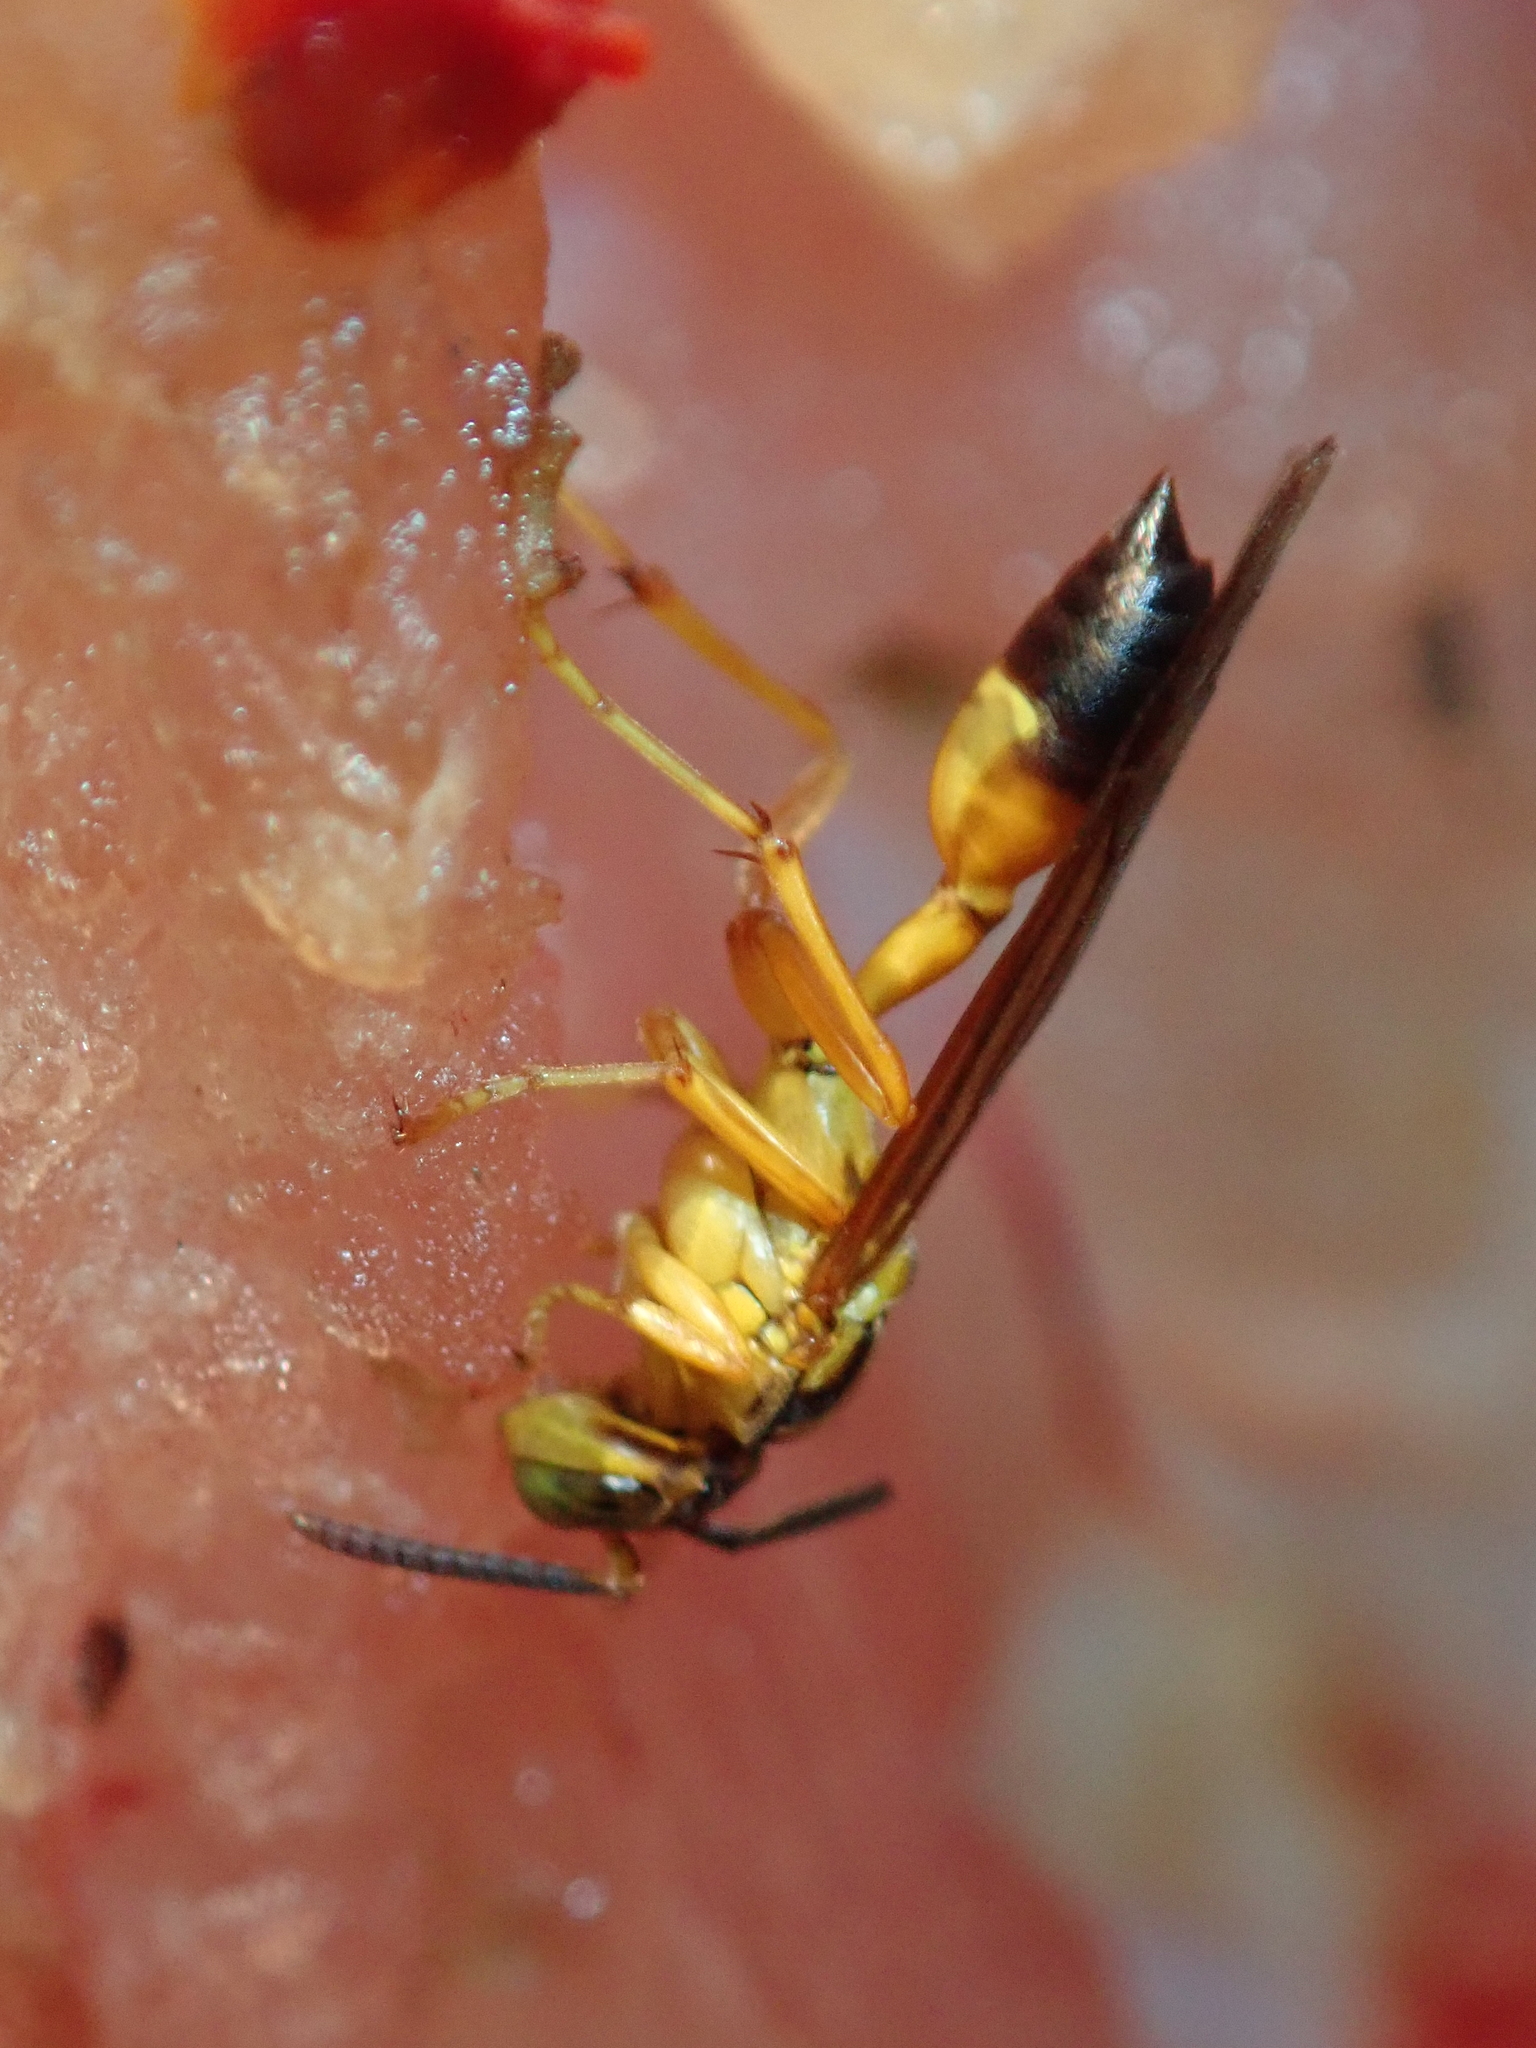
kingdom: Animalia
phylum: Arthropoda
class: Insecta
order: Hymenoptera
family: Vespidae
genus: Agelaia
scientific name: Agelaia pallipes
